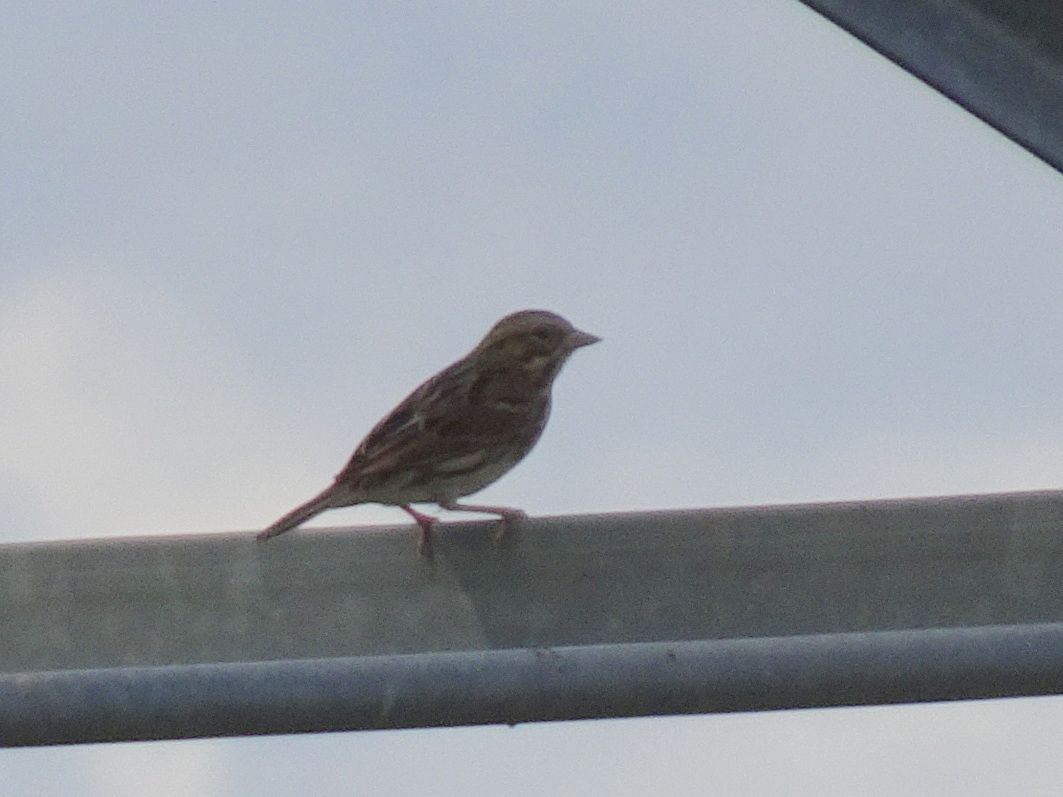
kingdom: Animalia
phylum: Chordata
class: Aves
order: Passeriformes
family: Passerellidae
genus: Passerculus
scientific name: Passerculus sandwichensis
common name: Savannah sparrow
